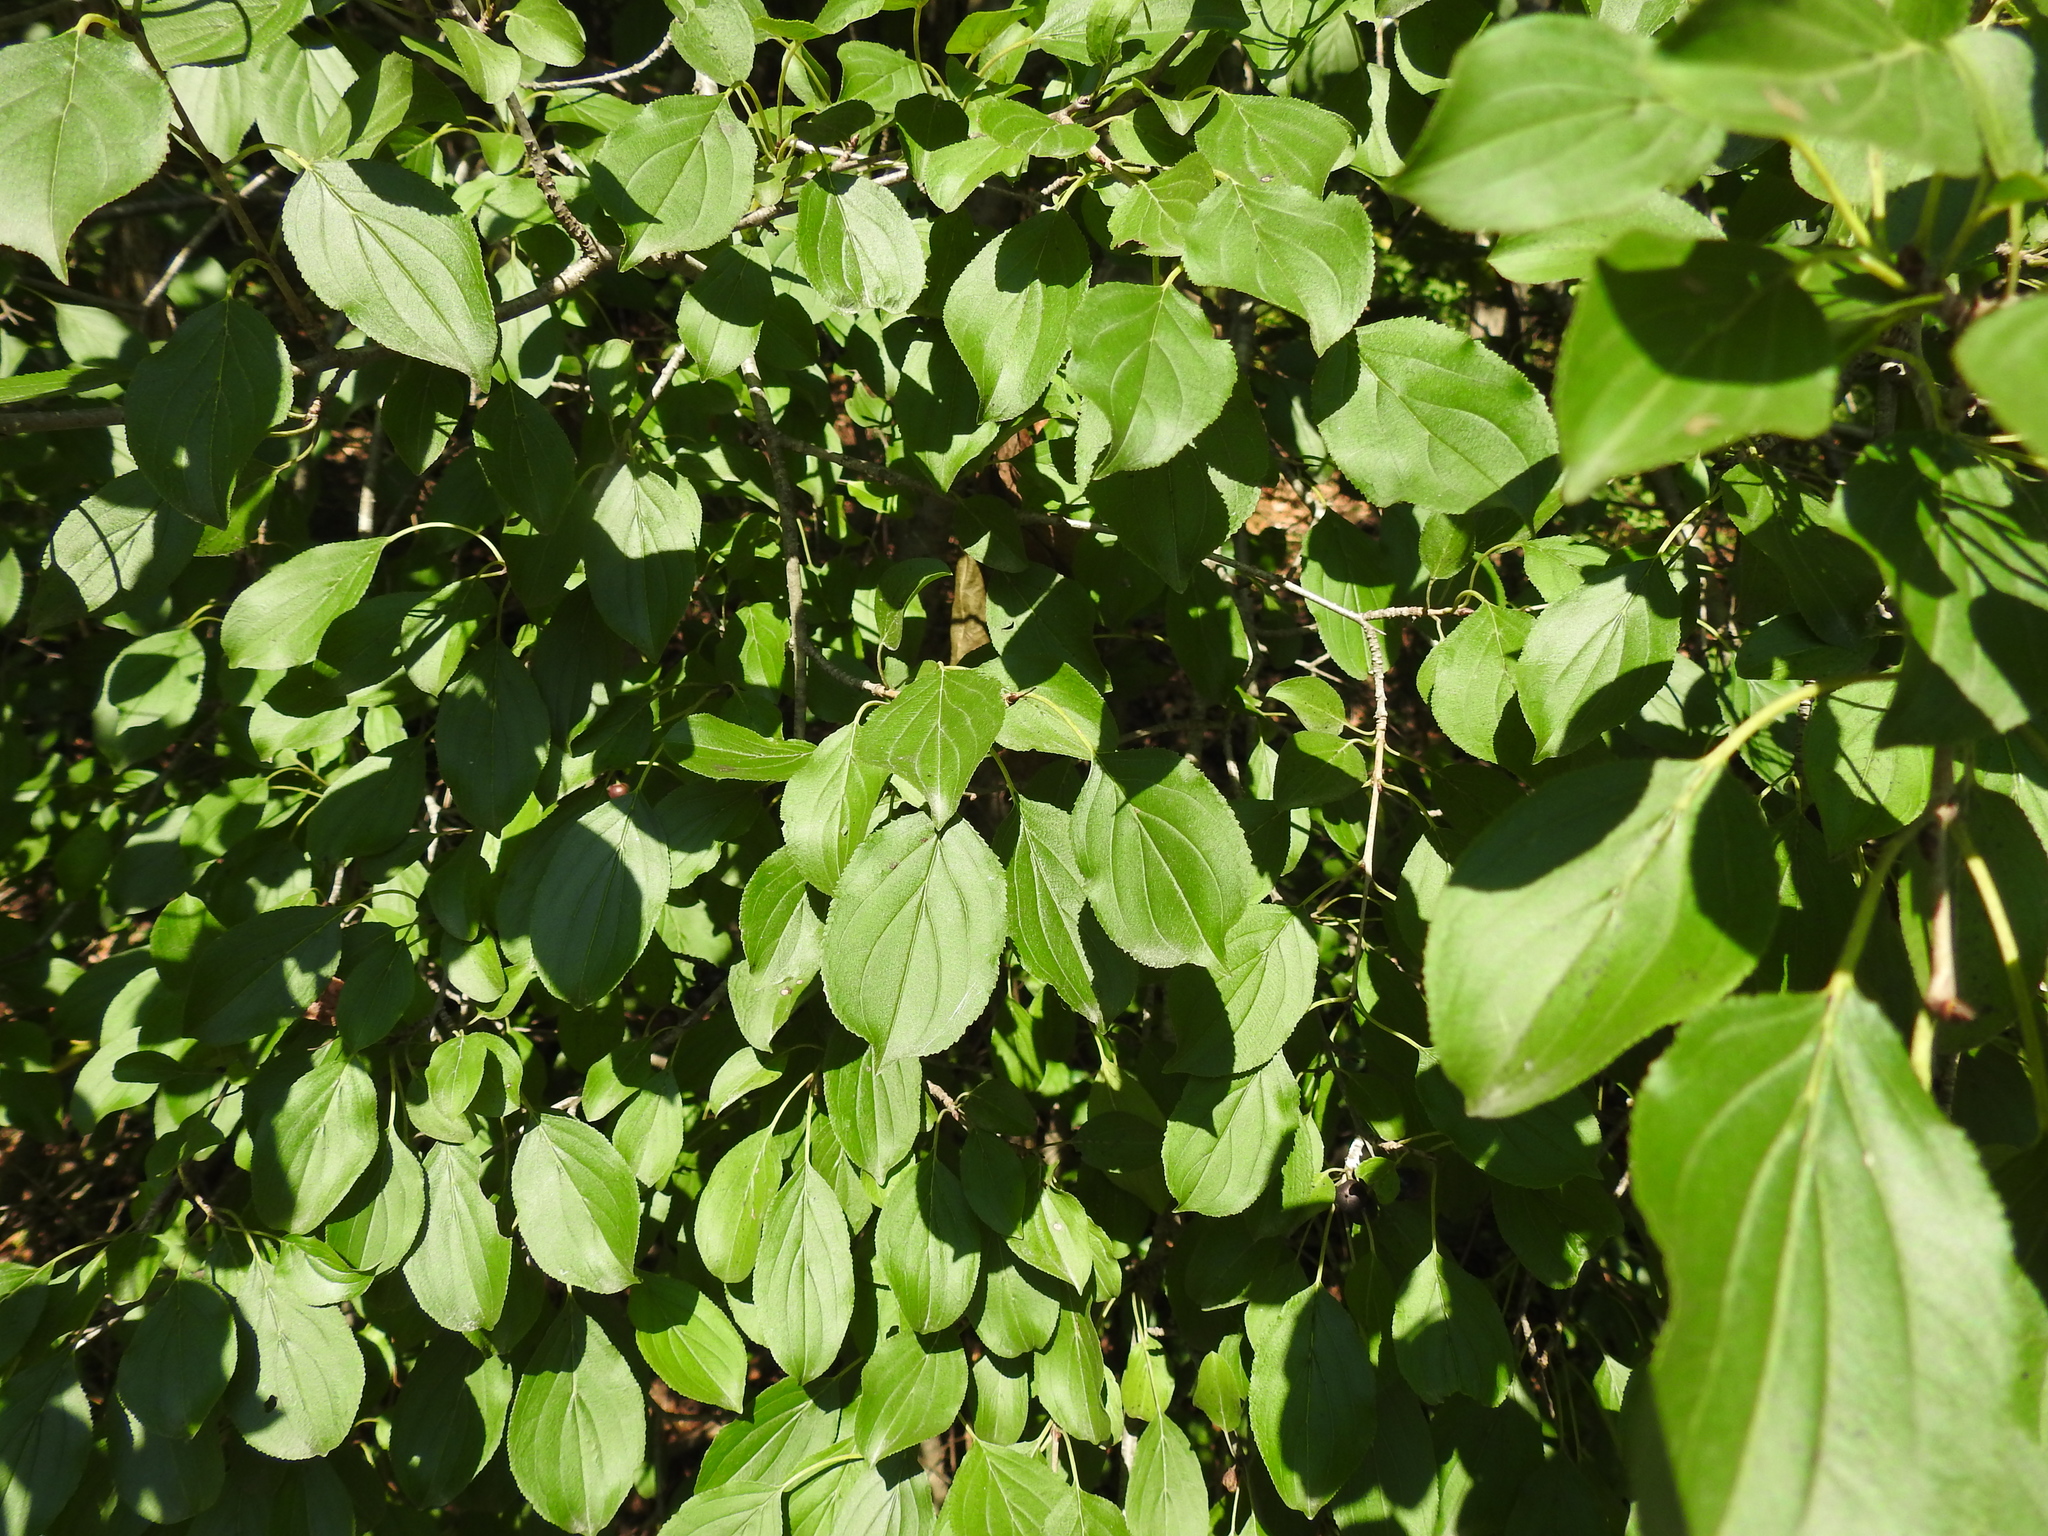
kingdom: Plantae
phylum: Tracheophyta
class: Magnoliopsida
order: Rosales
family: Rhamnaceae
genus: Rhamnus
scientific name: Rhamnus cathartica
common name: Common buckthorn
